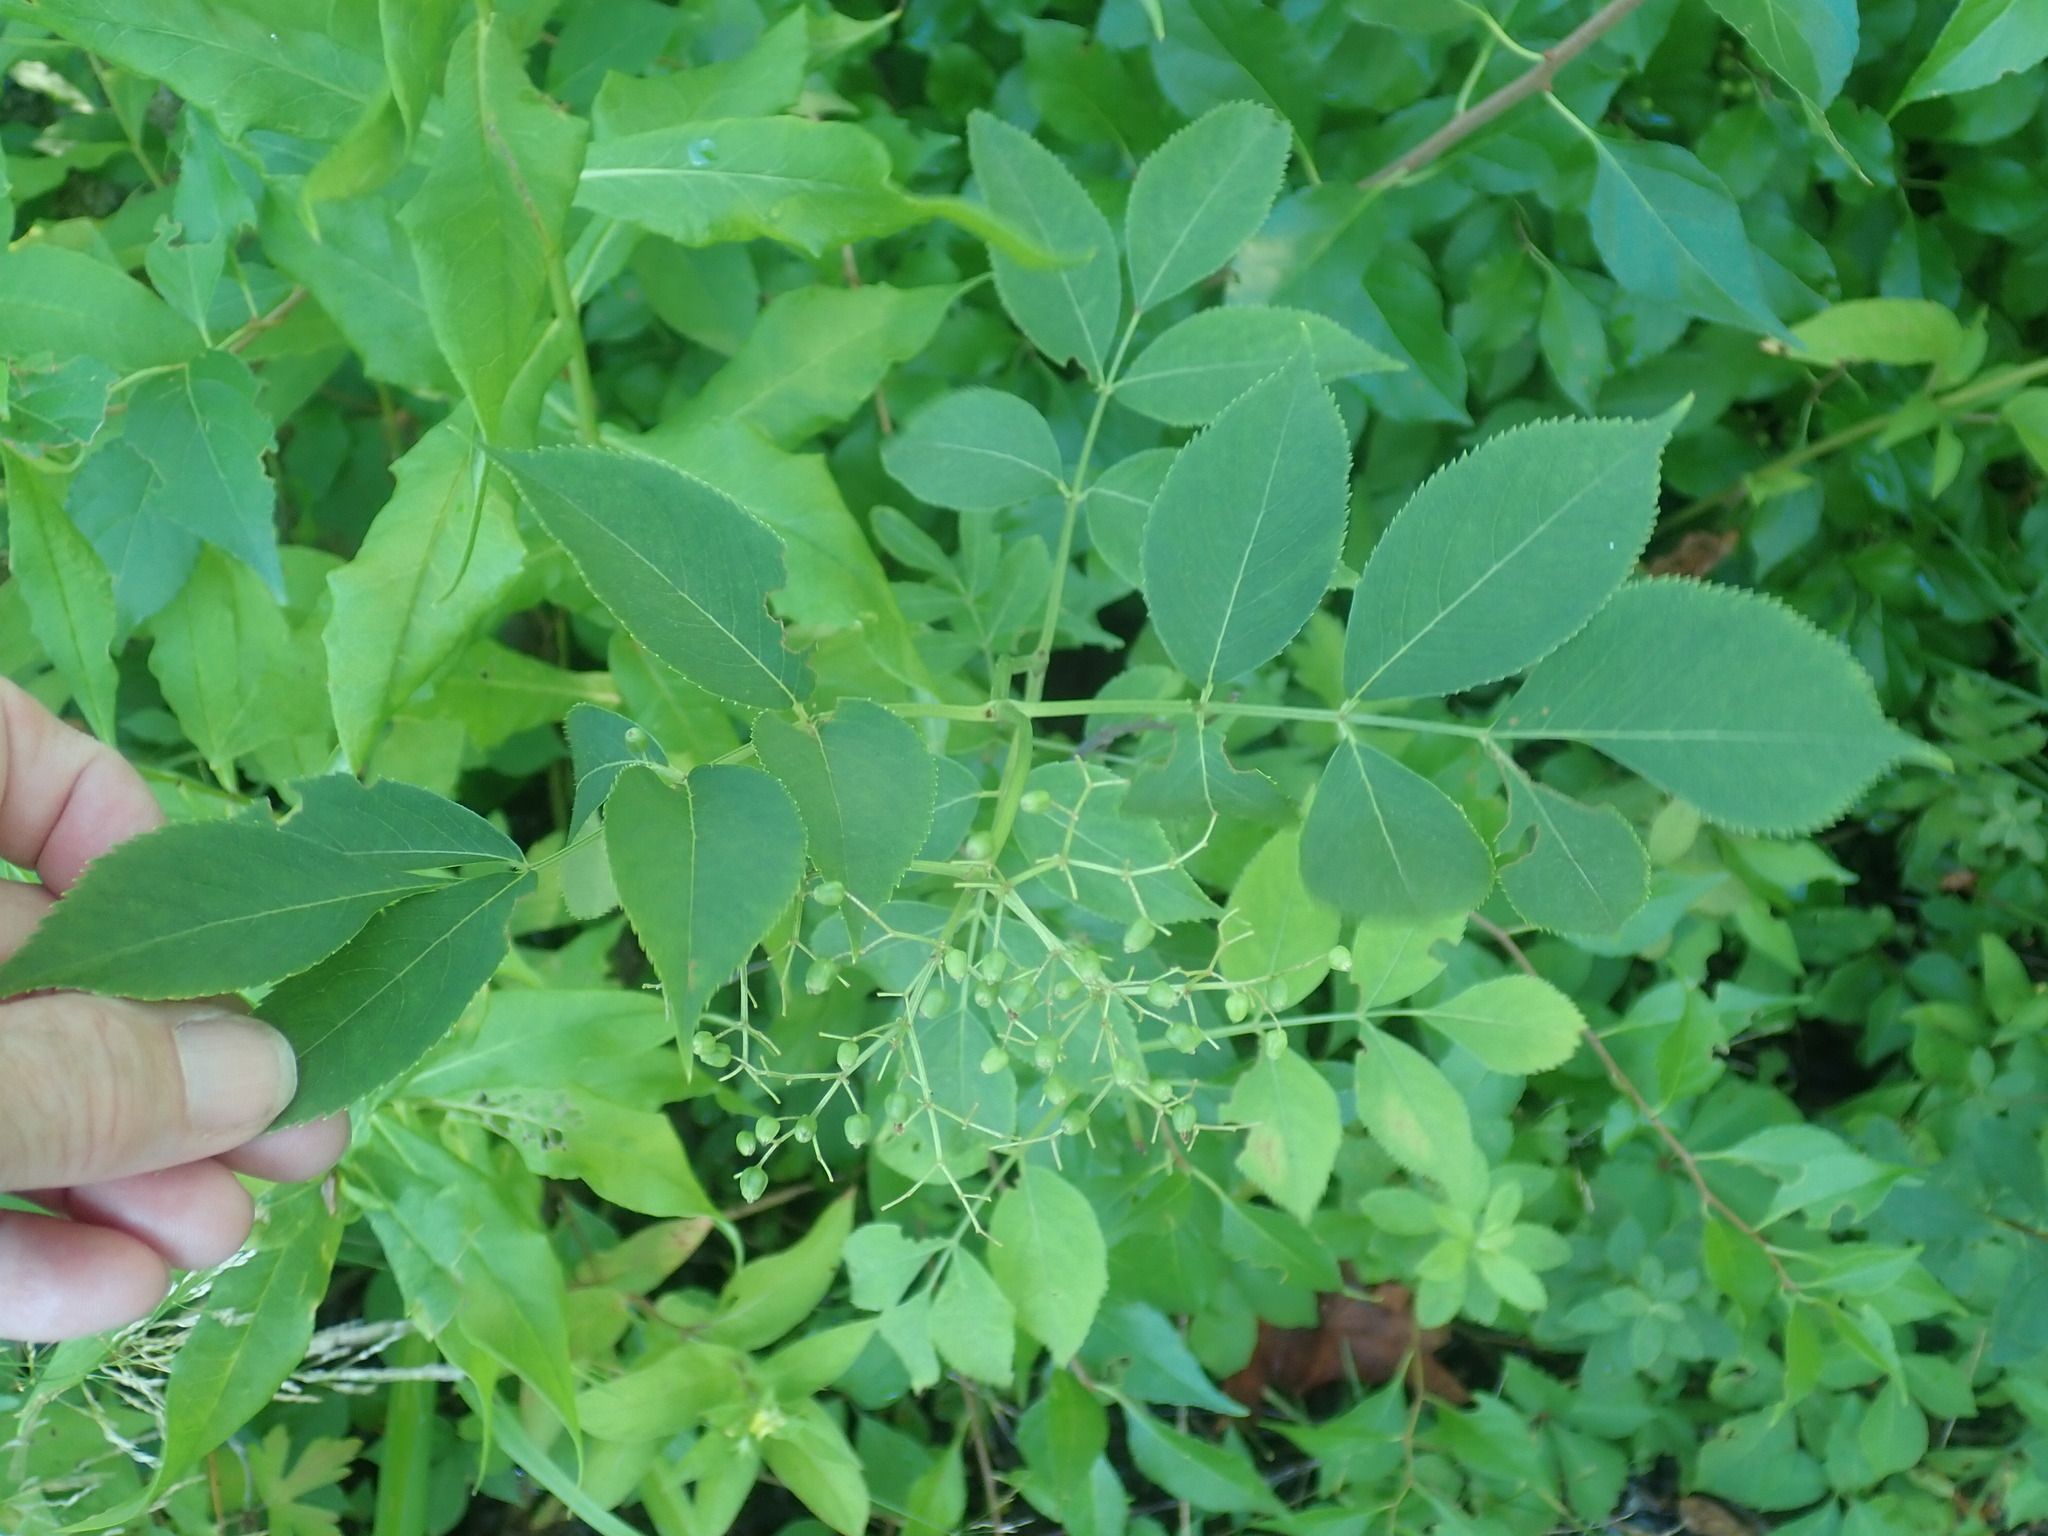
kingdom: Plantae
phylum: Tracheophyta
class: Magnoliopsida
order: Dipsacales
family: Viburnaceae
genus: Sambucus
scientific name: Sambucus canadensis
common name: American elder
